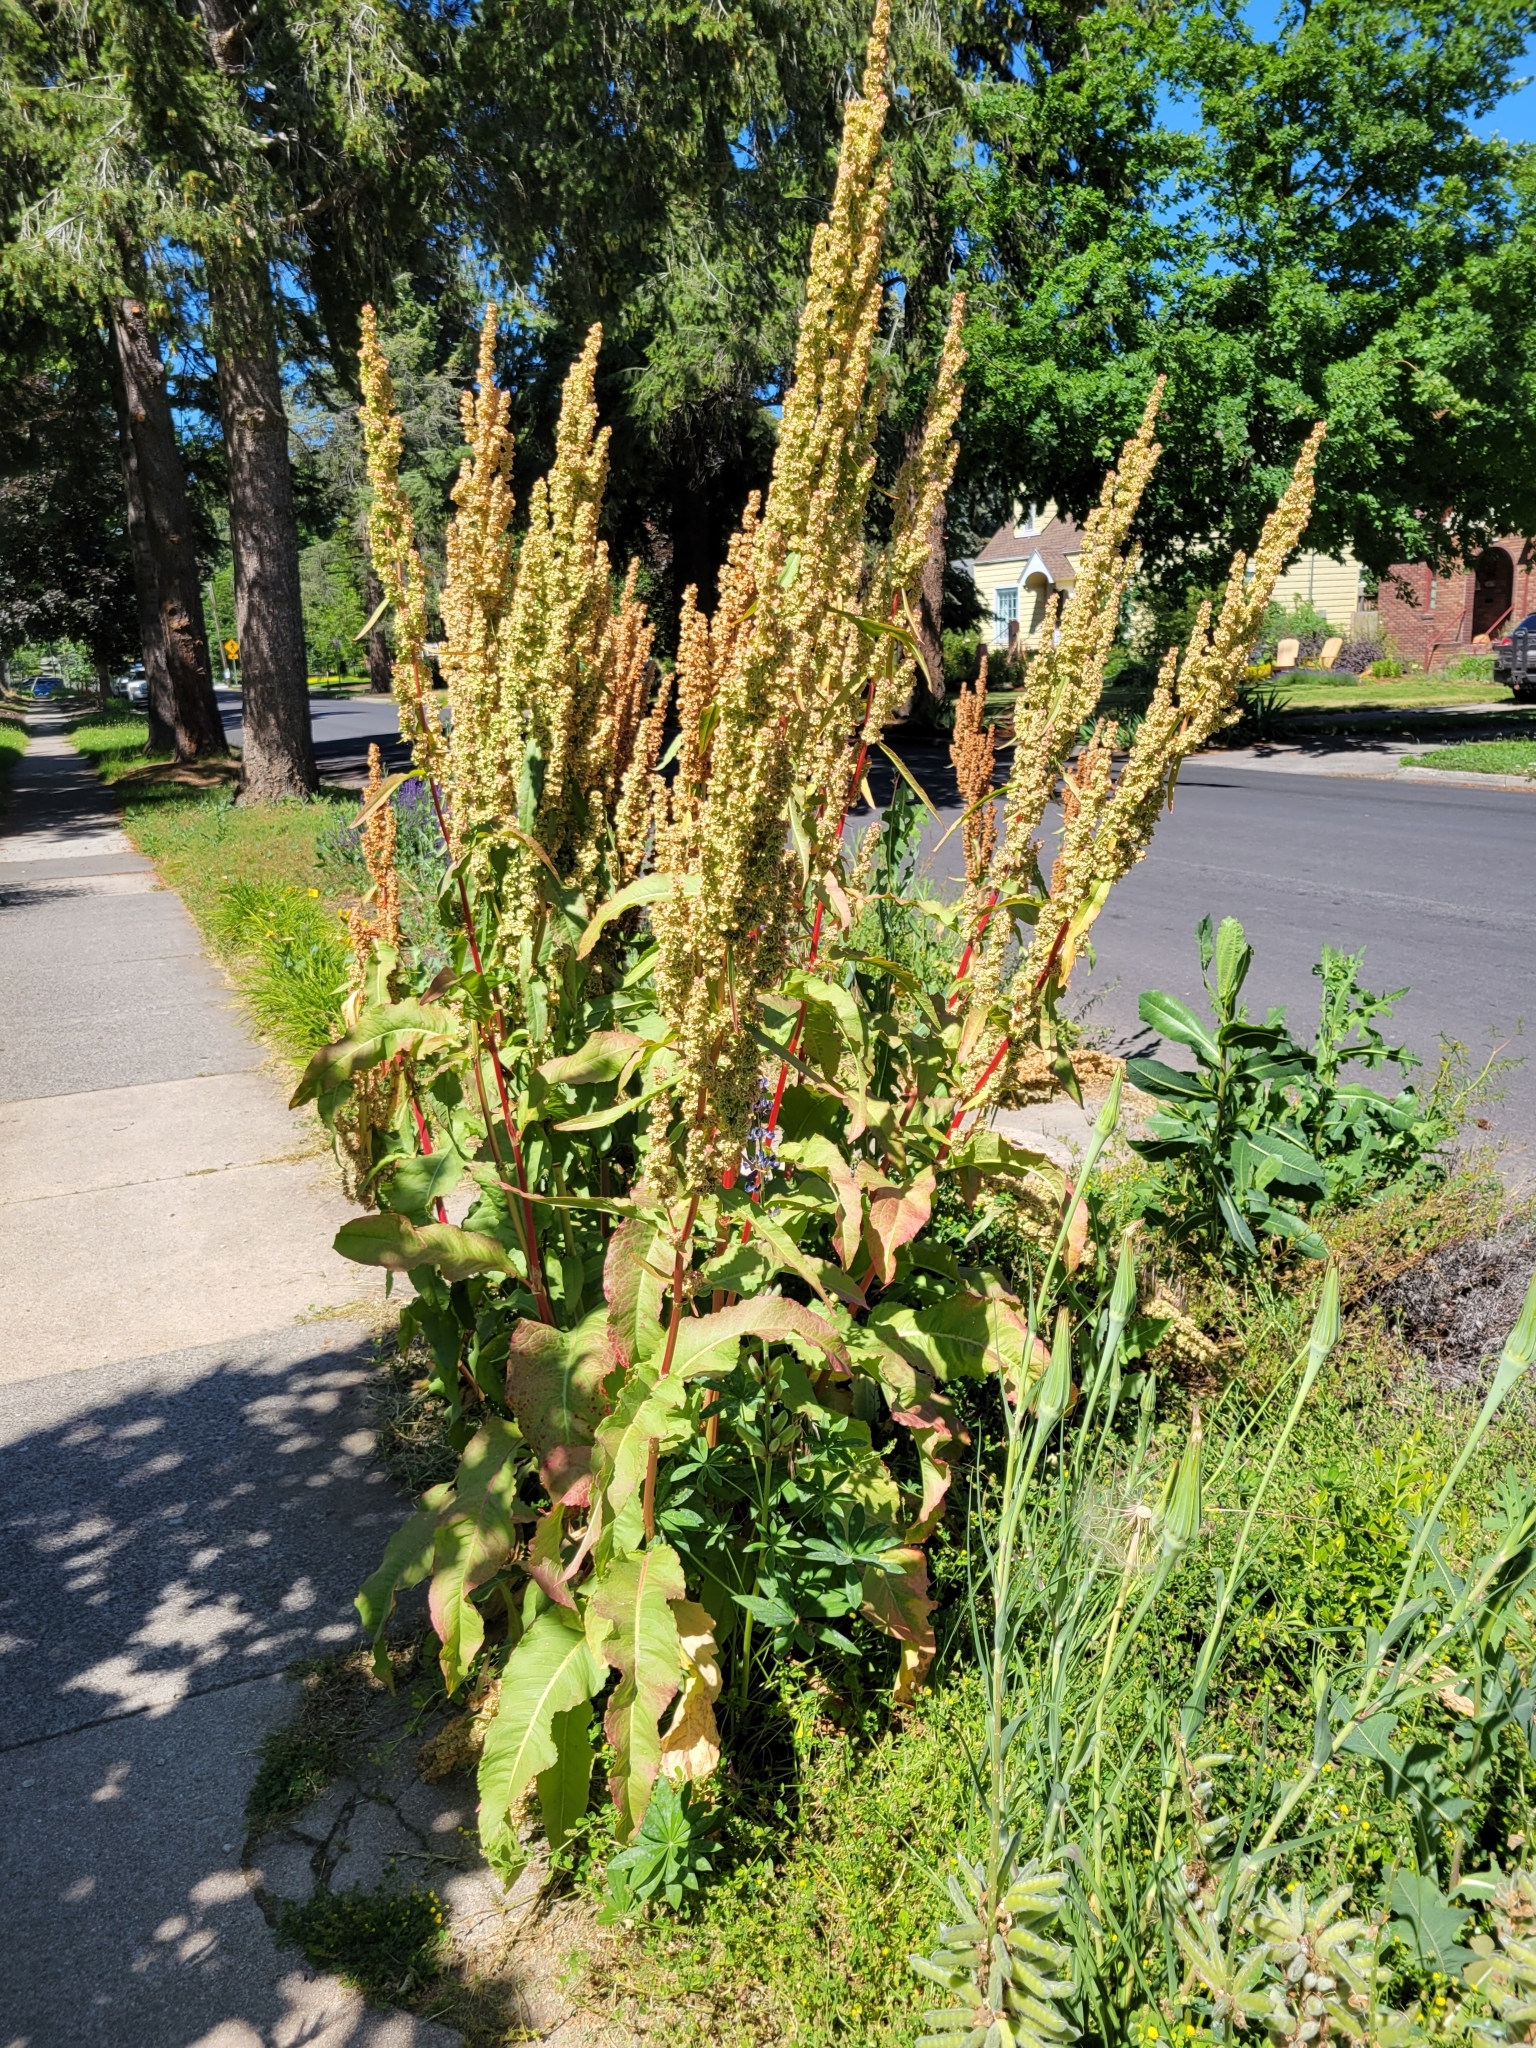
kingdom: Plantae
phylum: Tracheophyta
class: Magnoliopsida
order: Caryophyllales
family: Polygonaceae
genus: Rumex
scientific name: Rumex crispus
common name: Curled dock
